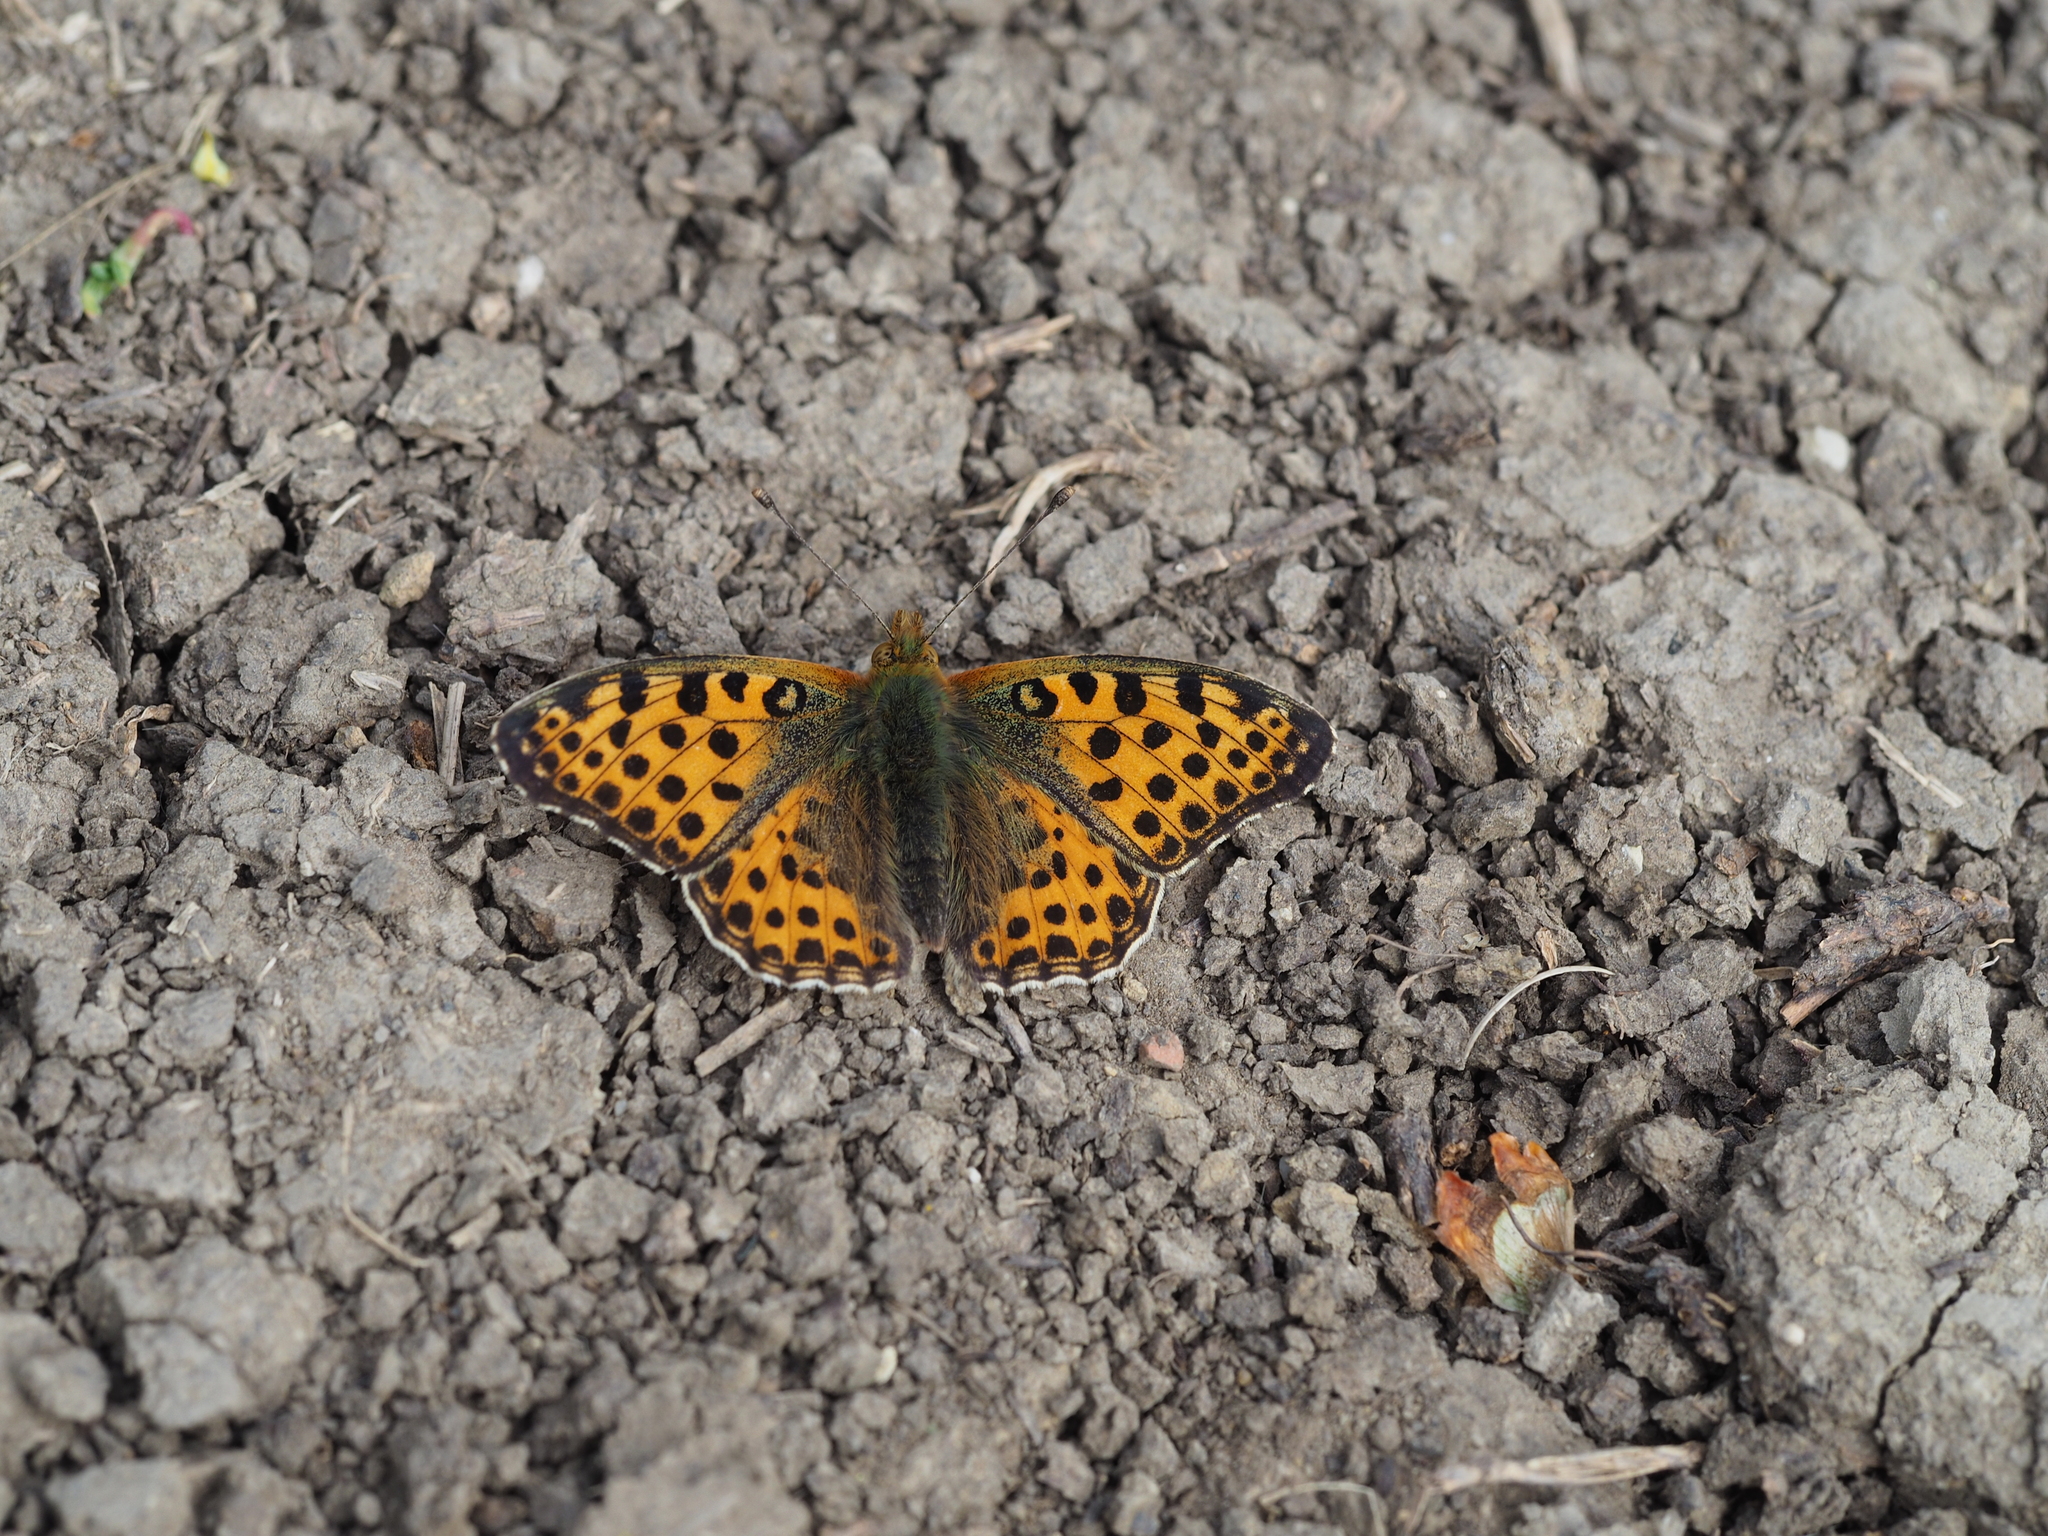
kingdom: Animalia
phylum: Arthropoda
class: Insecta
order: Lepidoptera
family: Nymphalidae
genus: Issoria
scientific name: Issoria lathonia
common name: Queen of spain fritillary
